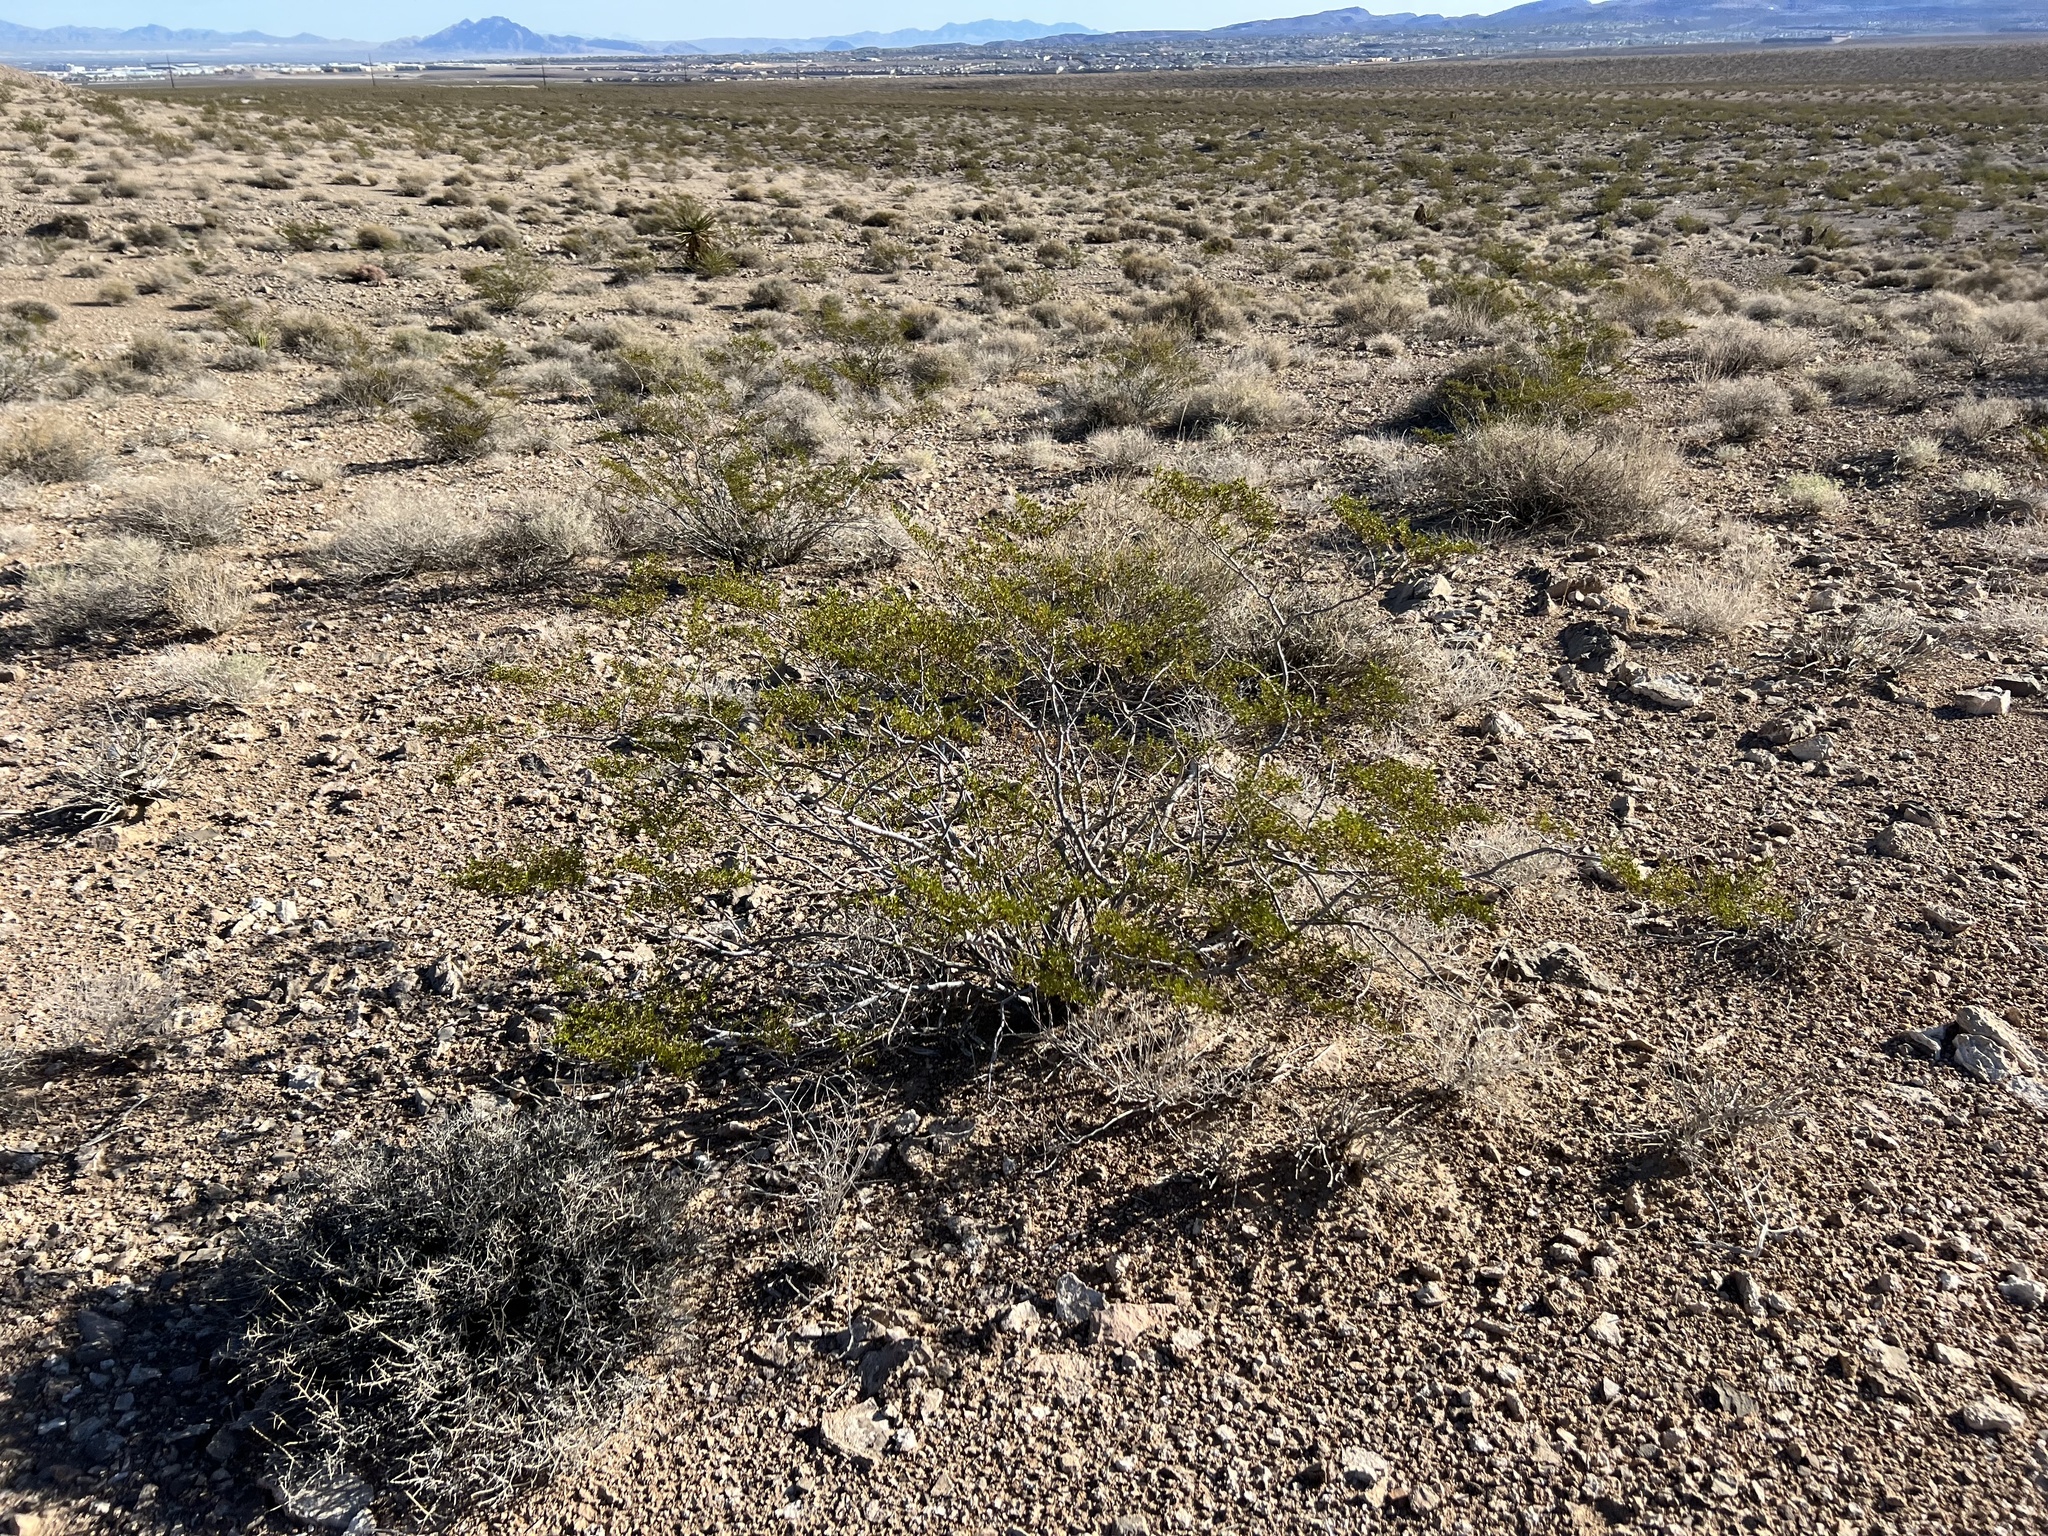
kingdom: Plantae
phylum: Tracheophyta
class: Magnoliopsida
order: Zygophyllales
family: Zygophyllaceae
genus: Larrea
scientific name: Larrea tridentata
